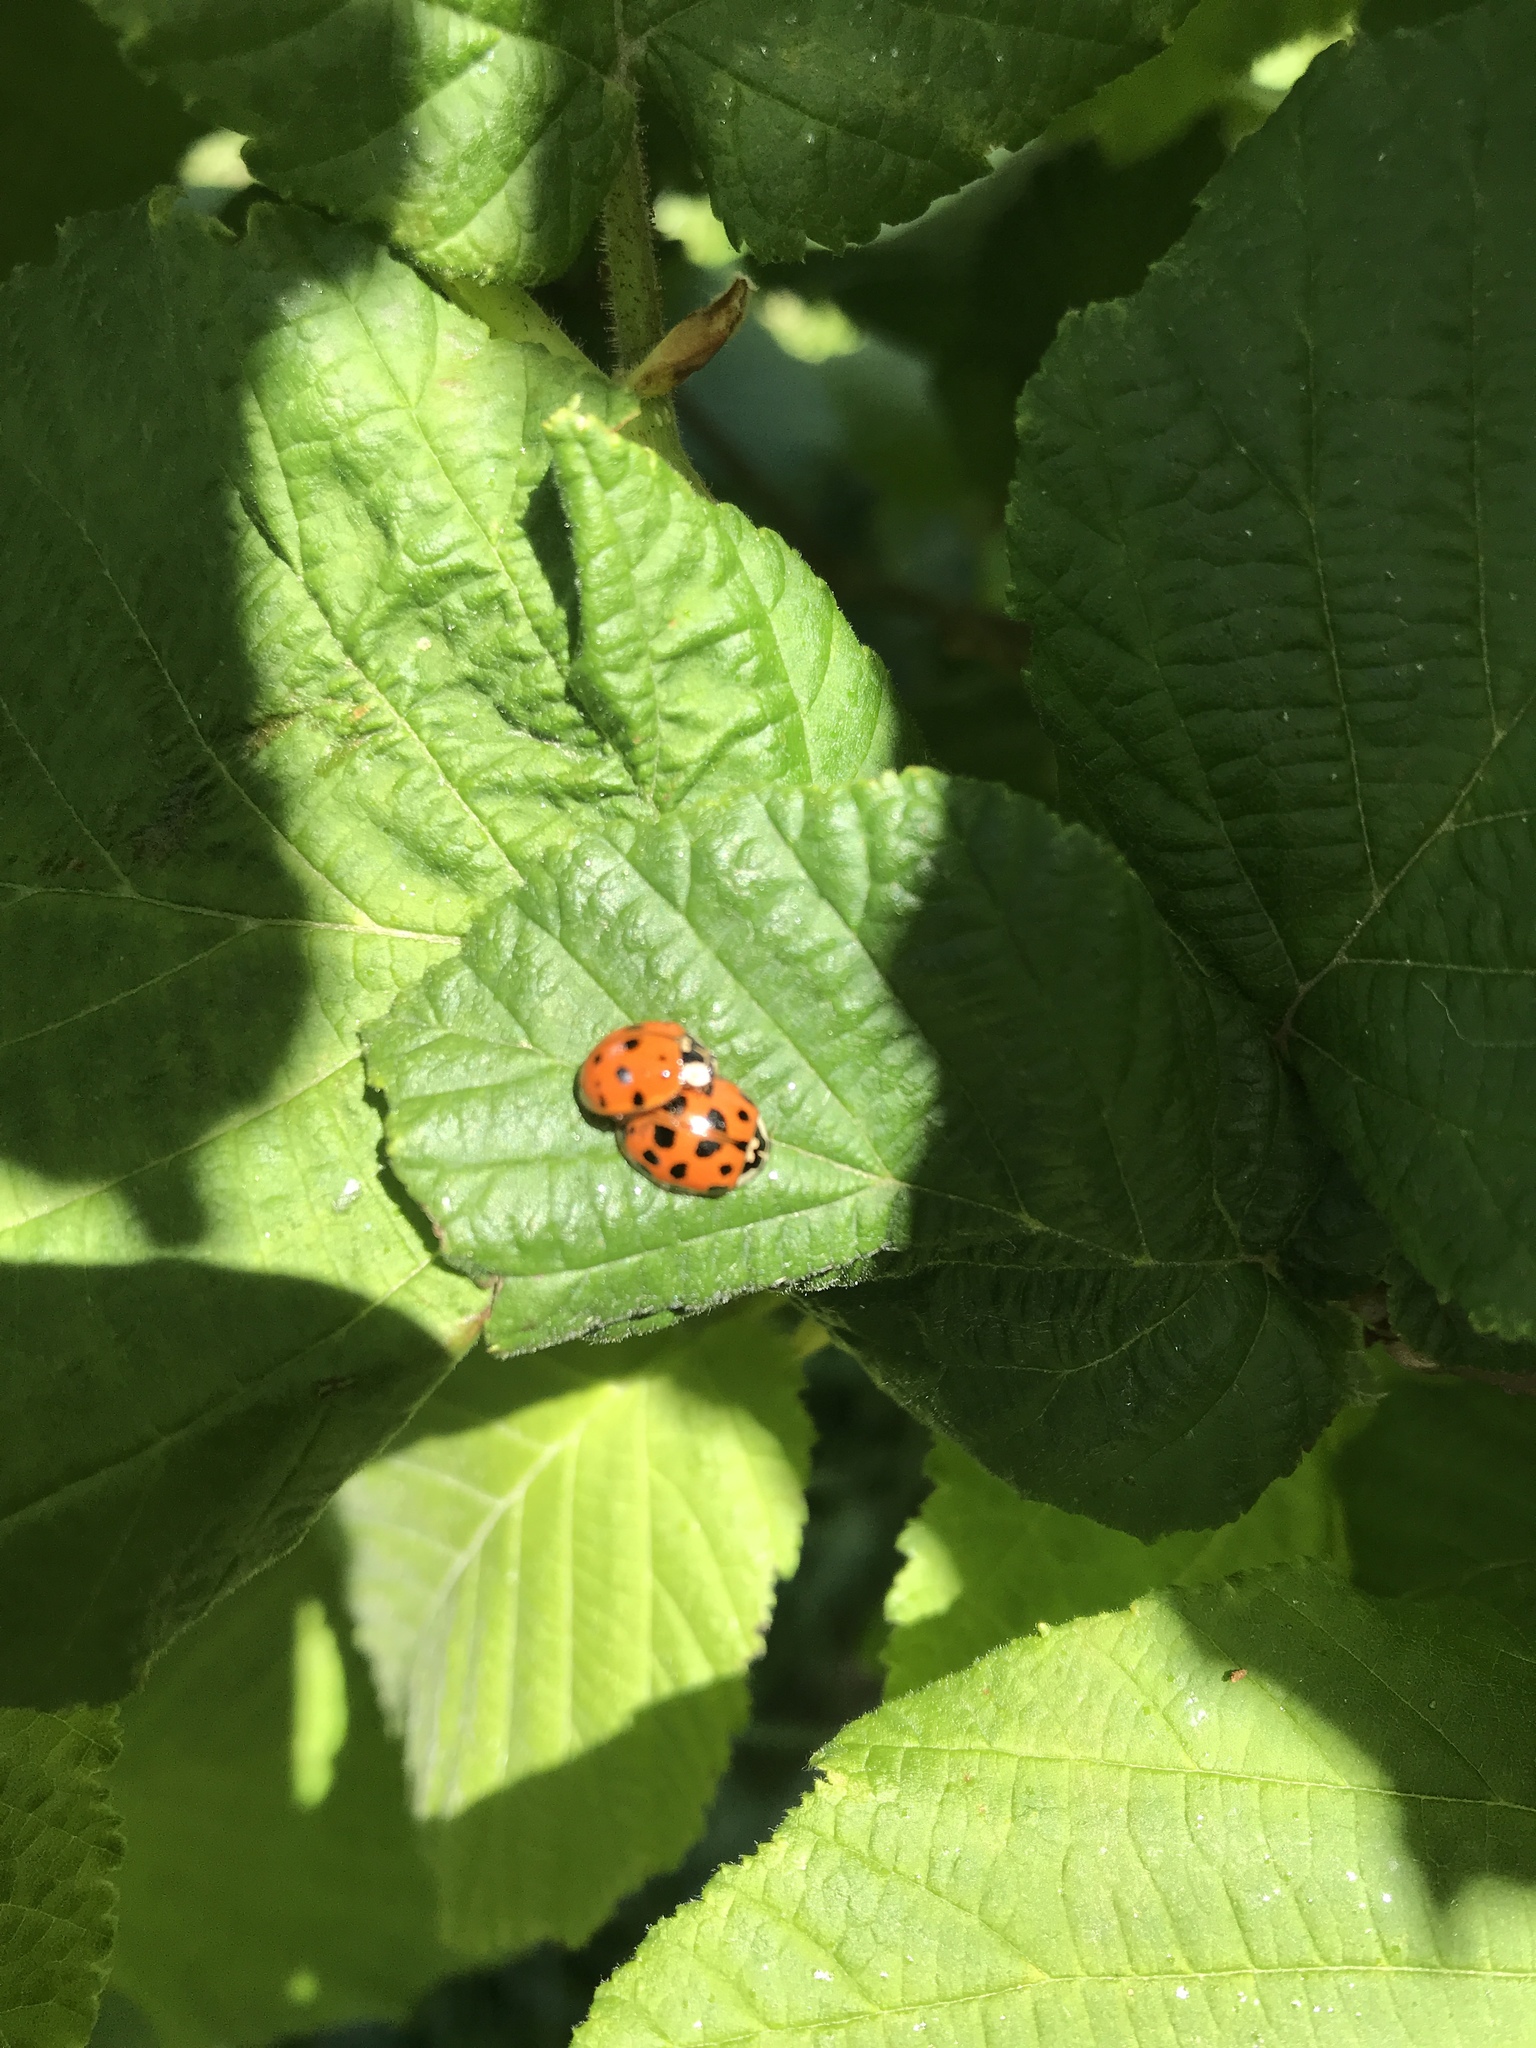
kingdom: Animalia
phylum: Arthropoda
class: Insecta
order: Coleoptera
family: Coccinellidae
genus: Harmonia
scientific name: Harmonia axyridis
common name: Harlequin ladybird
